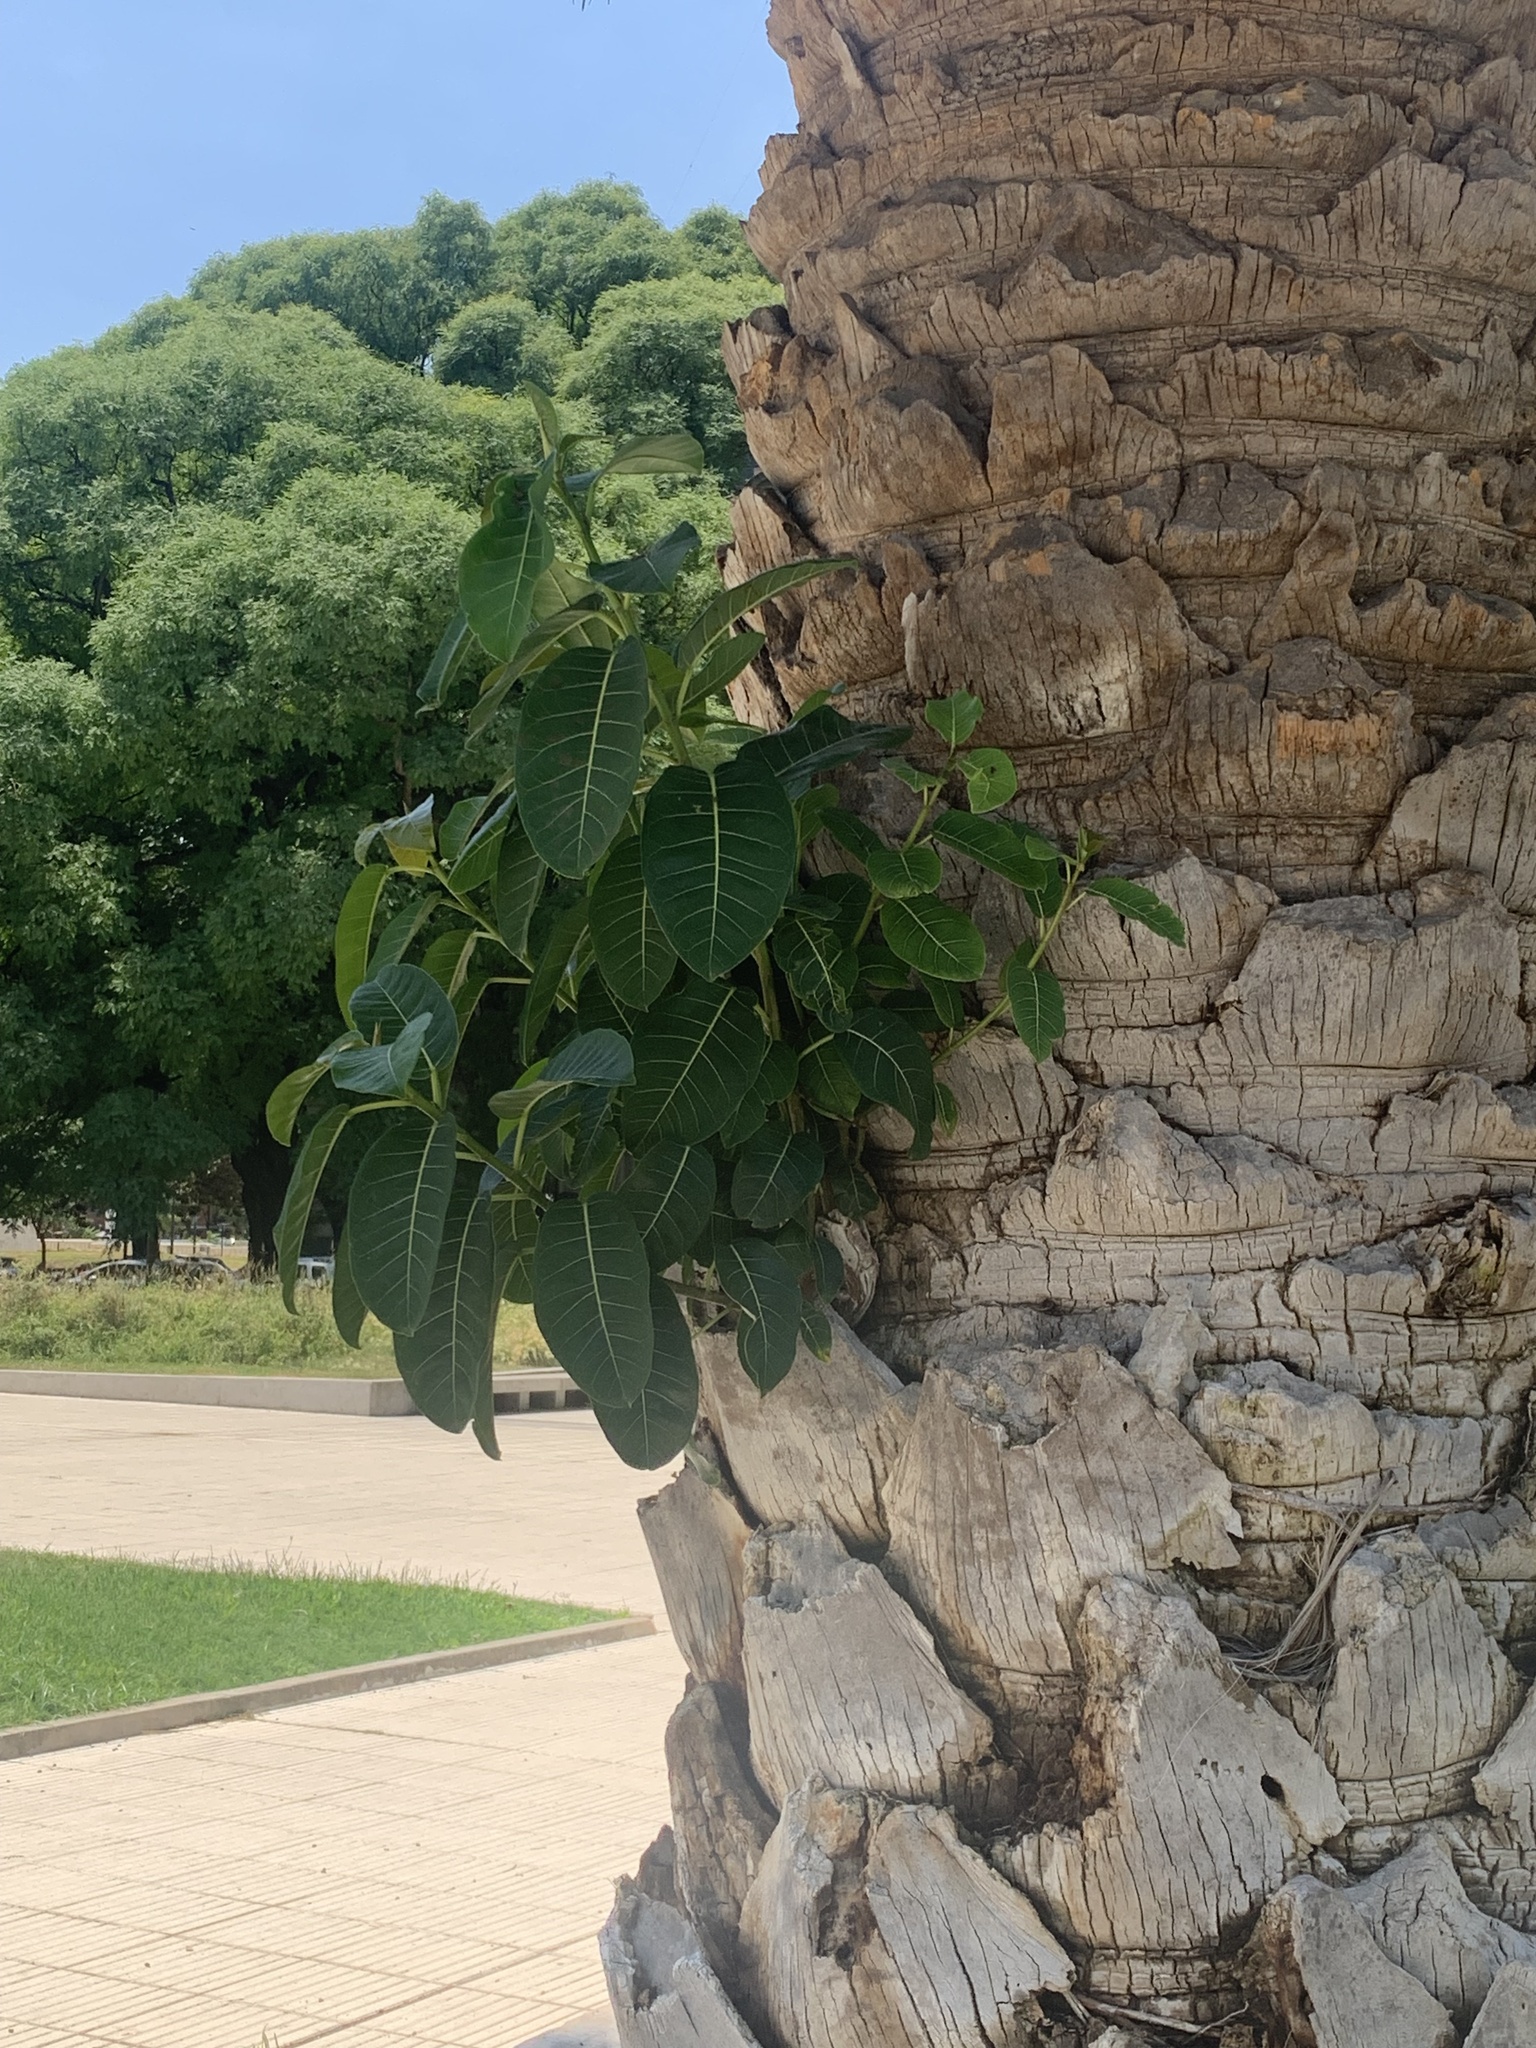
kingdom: Plantae
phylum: Tracheophyta
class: Magnoliopsida
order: Rosales
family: Moraceae
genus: Ficus
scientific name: Ficus luschnathiana
